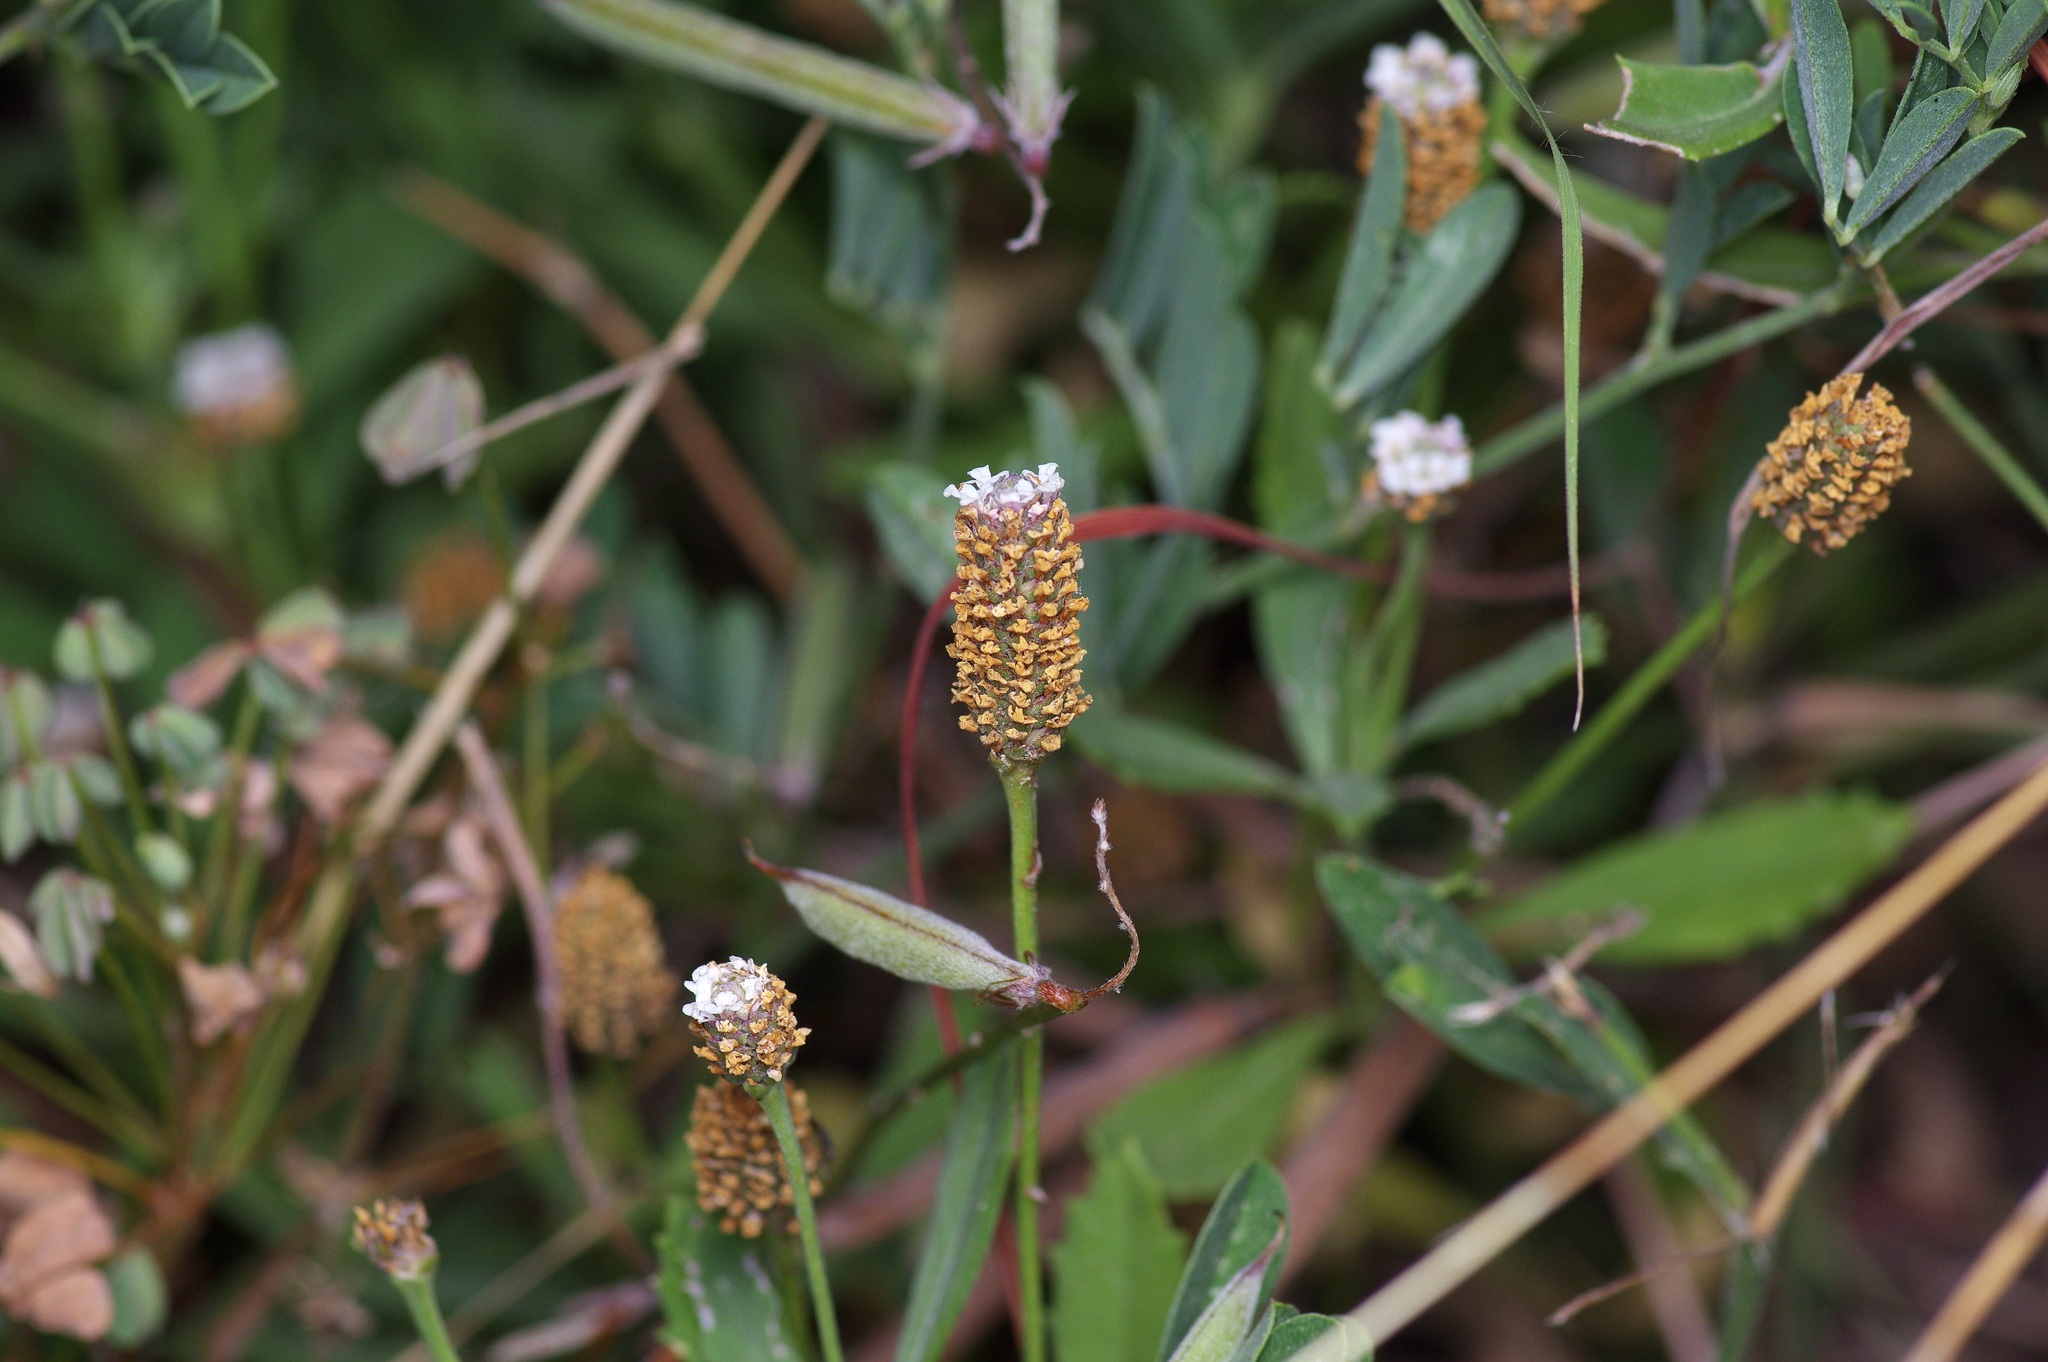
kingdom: Plantae
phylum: Tracheophyta
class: Magnoliopsida
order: Lamiales
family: Verbenaceae
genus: Phyla
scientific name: Phyla nodiflora
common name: Frogfruit
